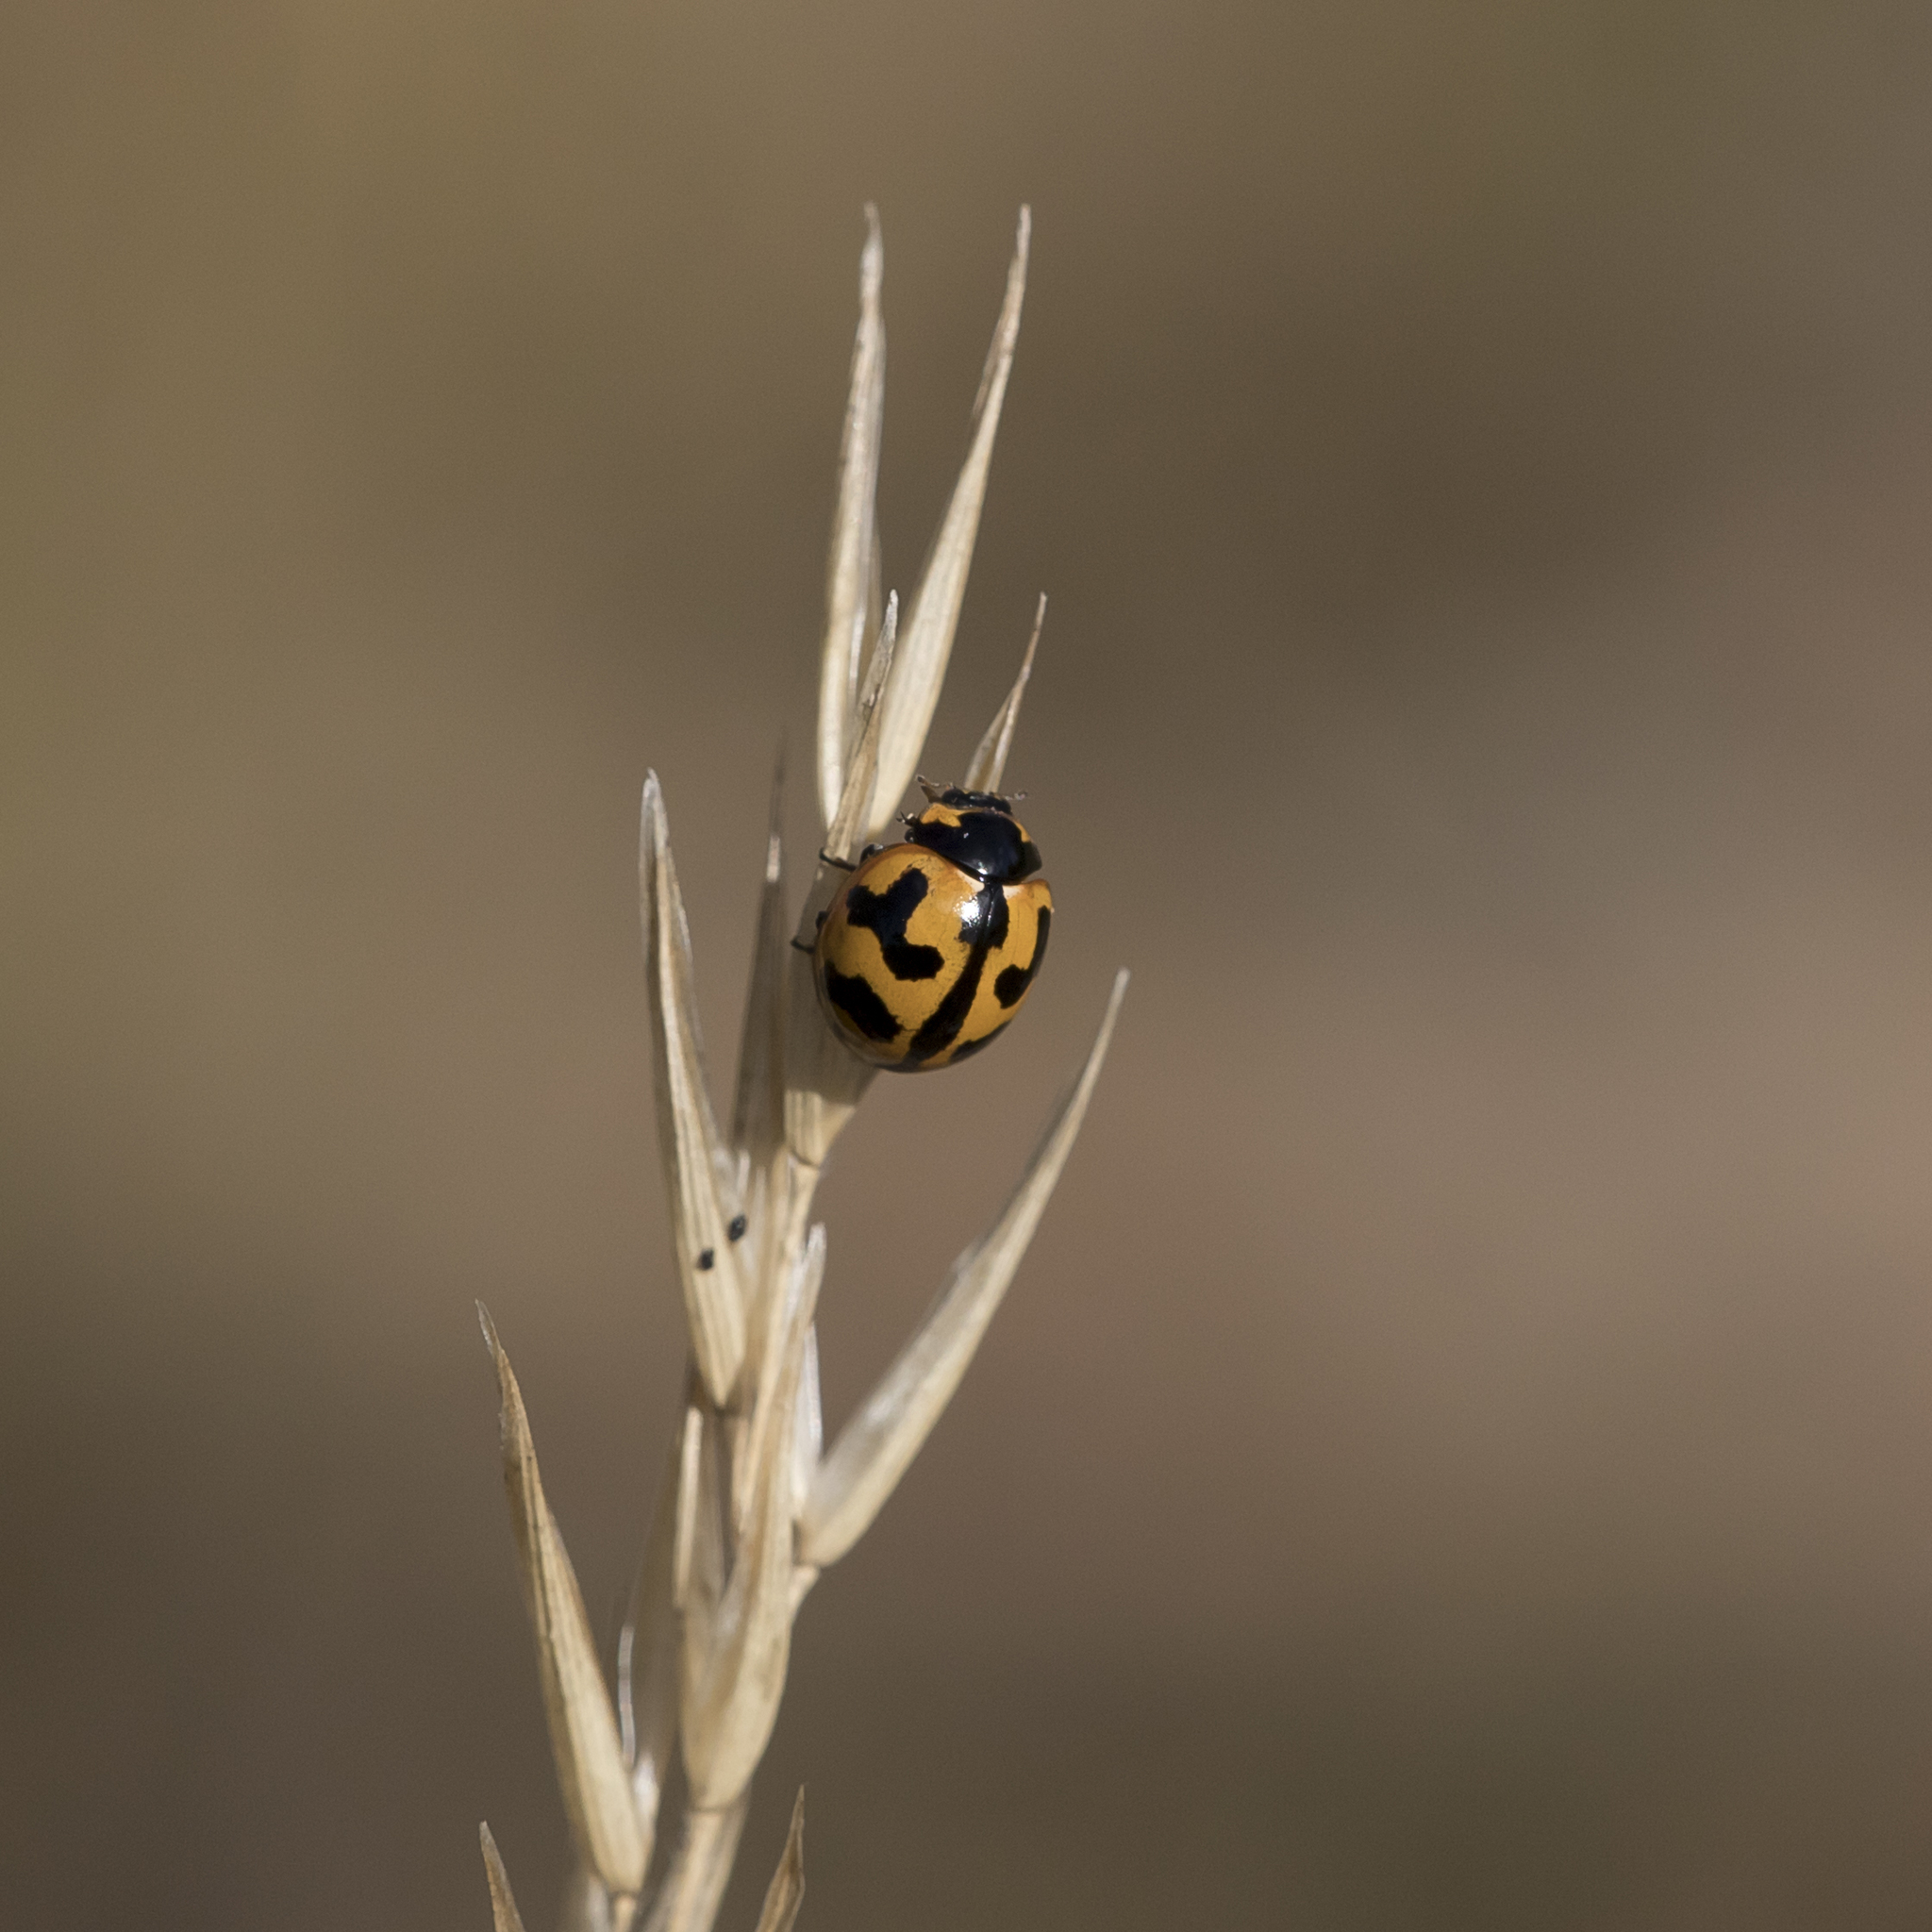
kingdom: Animalia
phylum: Arthropoda
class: Insecta
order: Coleoptera
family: Coccinellidae
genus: Coccinella
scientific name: Coccinella transversalis
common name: Transverse lady beetle
